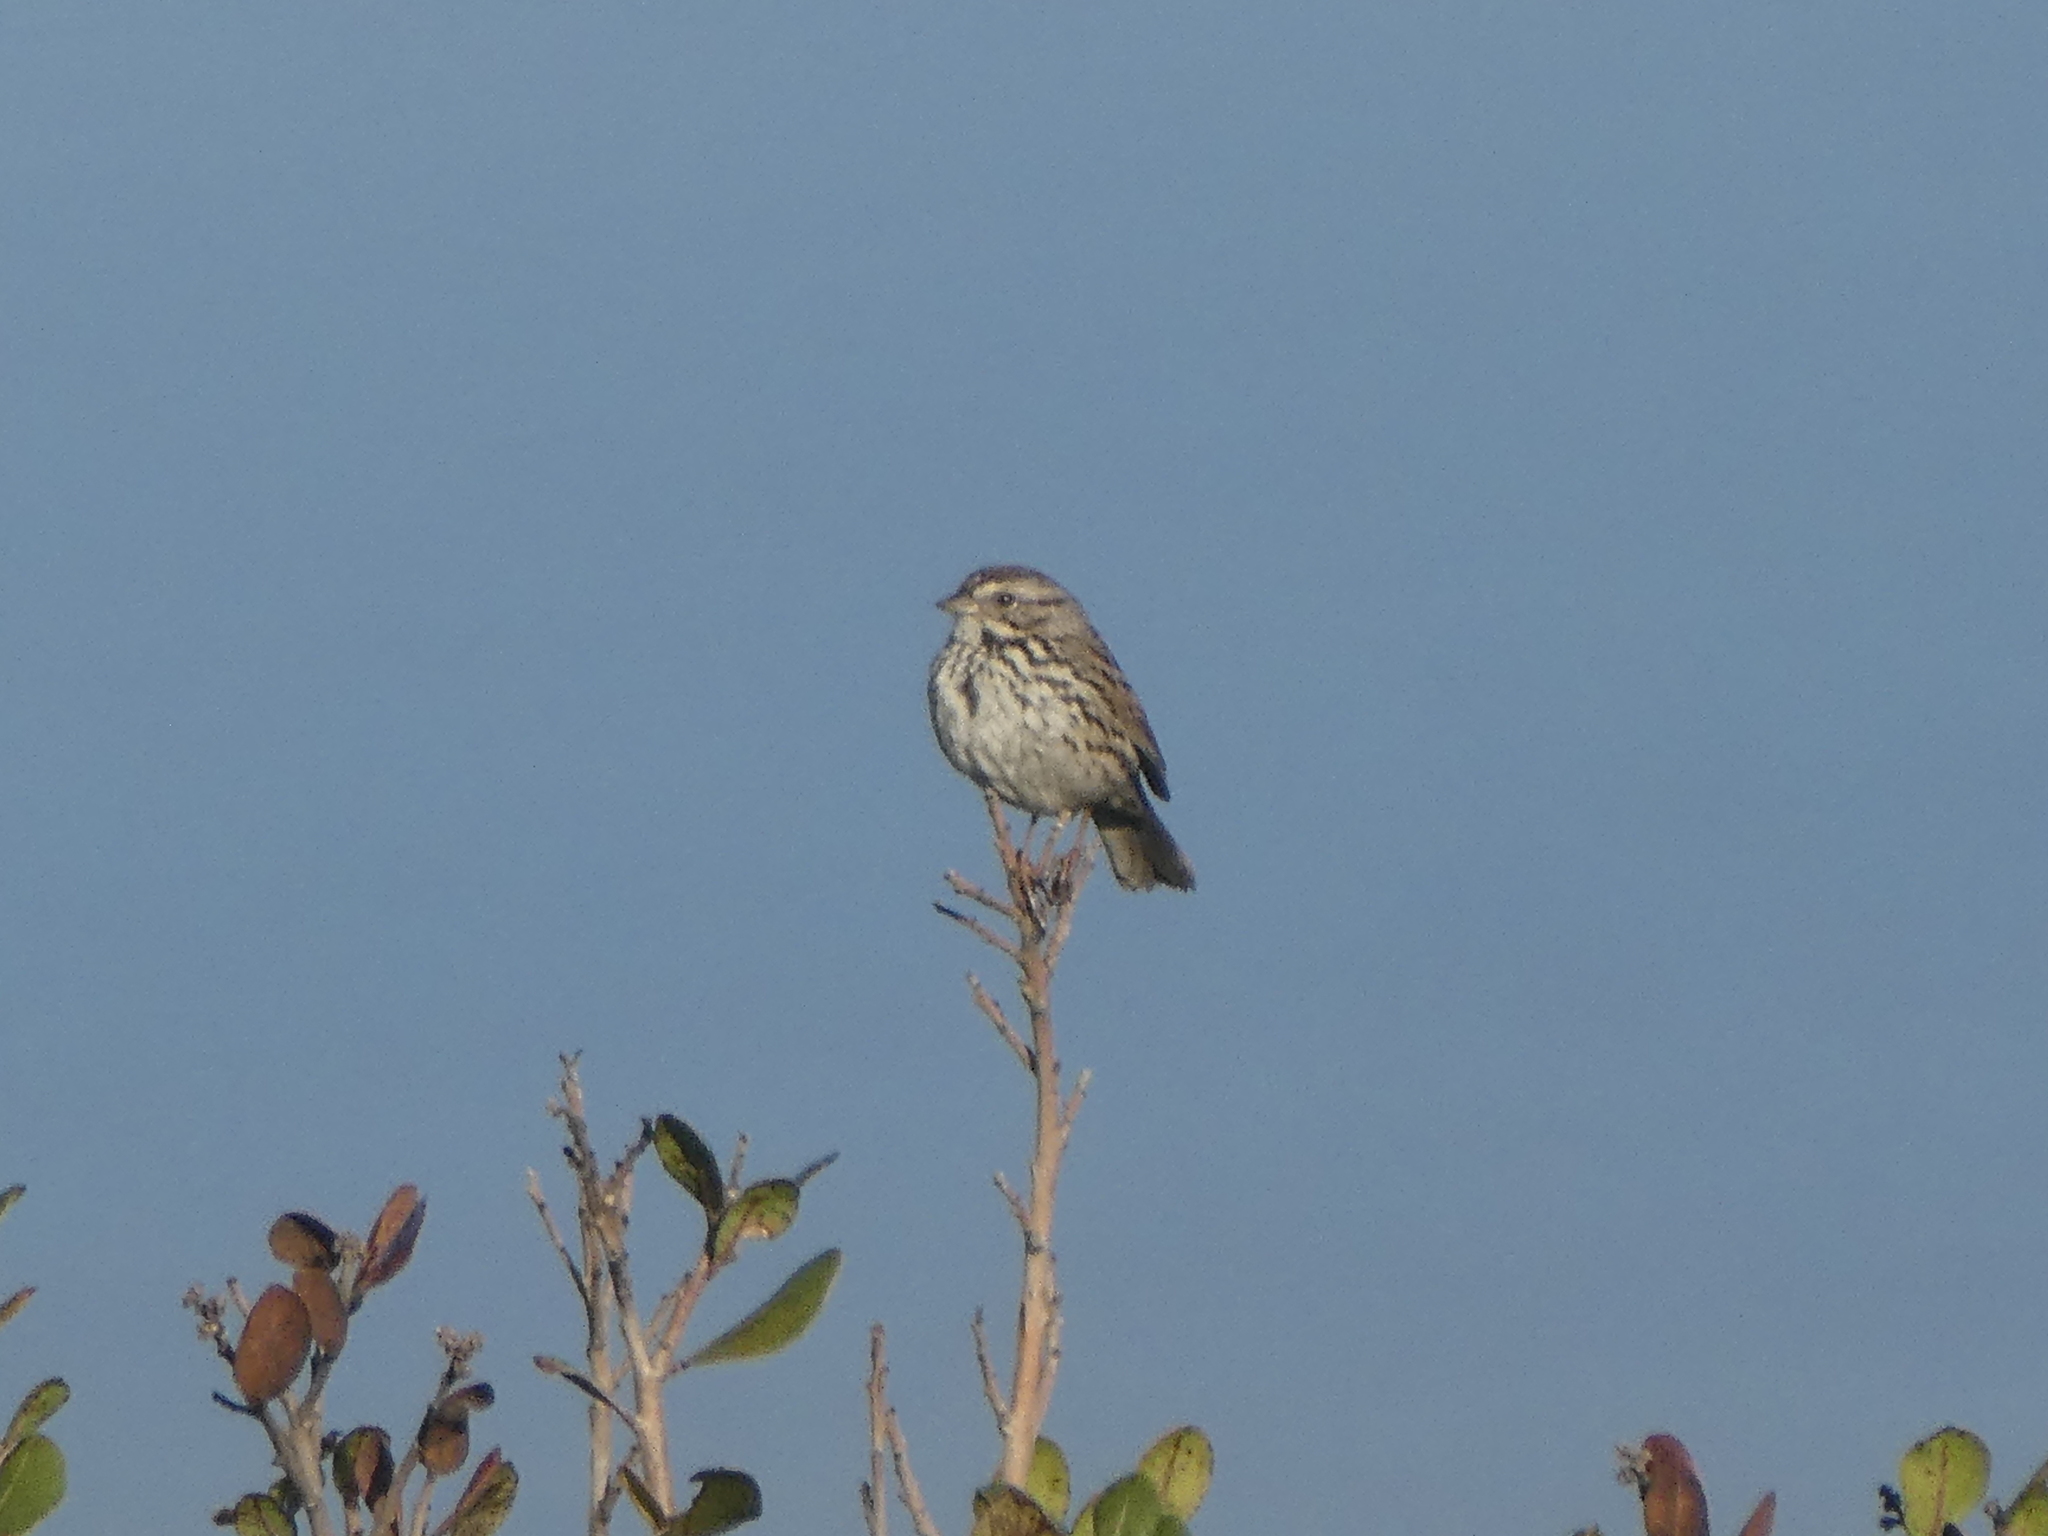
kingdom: Animalia
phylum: Chordata
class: Aves
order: Passeriformes
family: Passerellidae
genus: Melospiza
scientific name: Melospiza melodia
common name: Song sparrow
